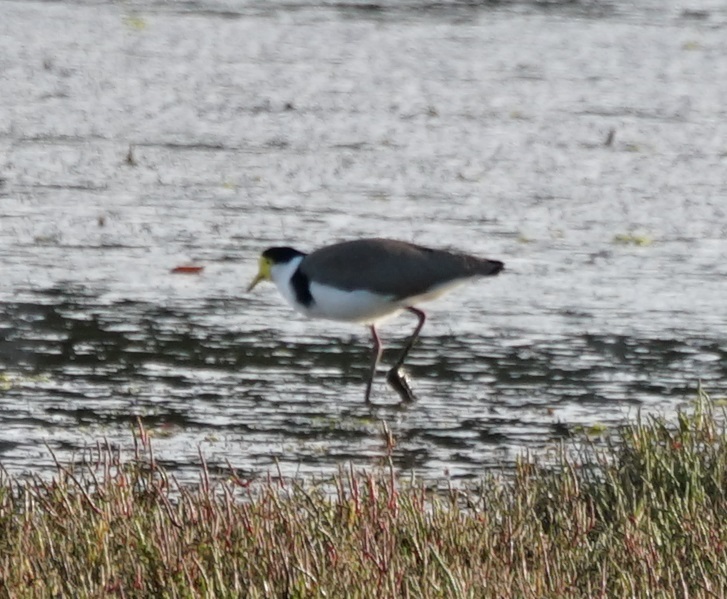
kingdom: Animalia
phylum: Chordata
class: Aves
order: Charadriiformes
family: Charadriidae
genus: Vanellus
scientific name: Vanellus miles
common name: Masked lapwing
